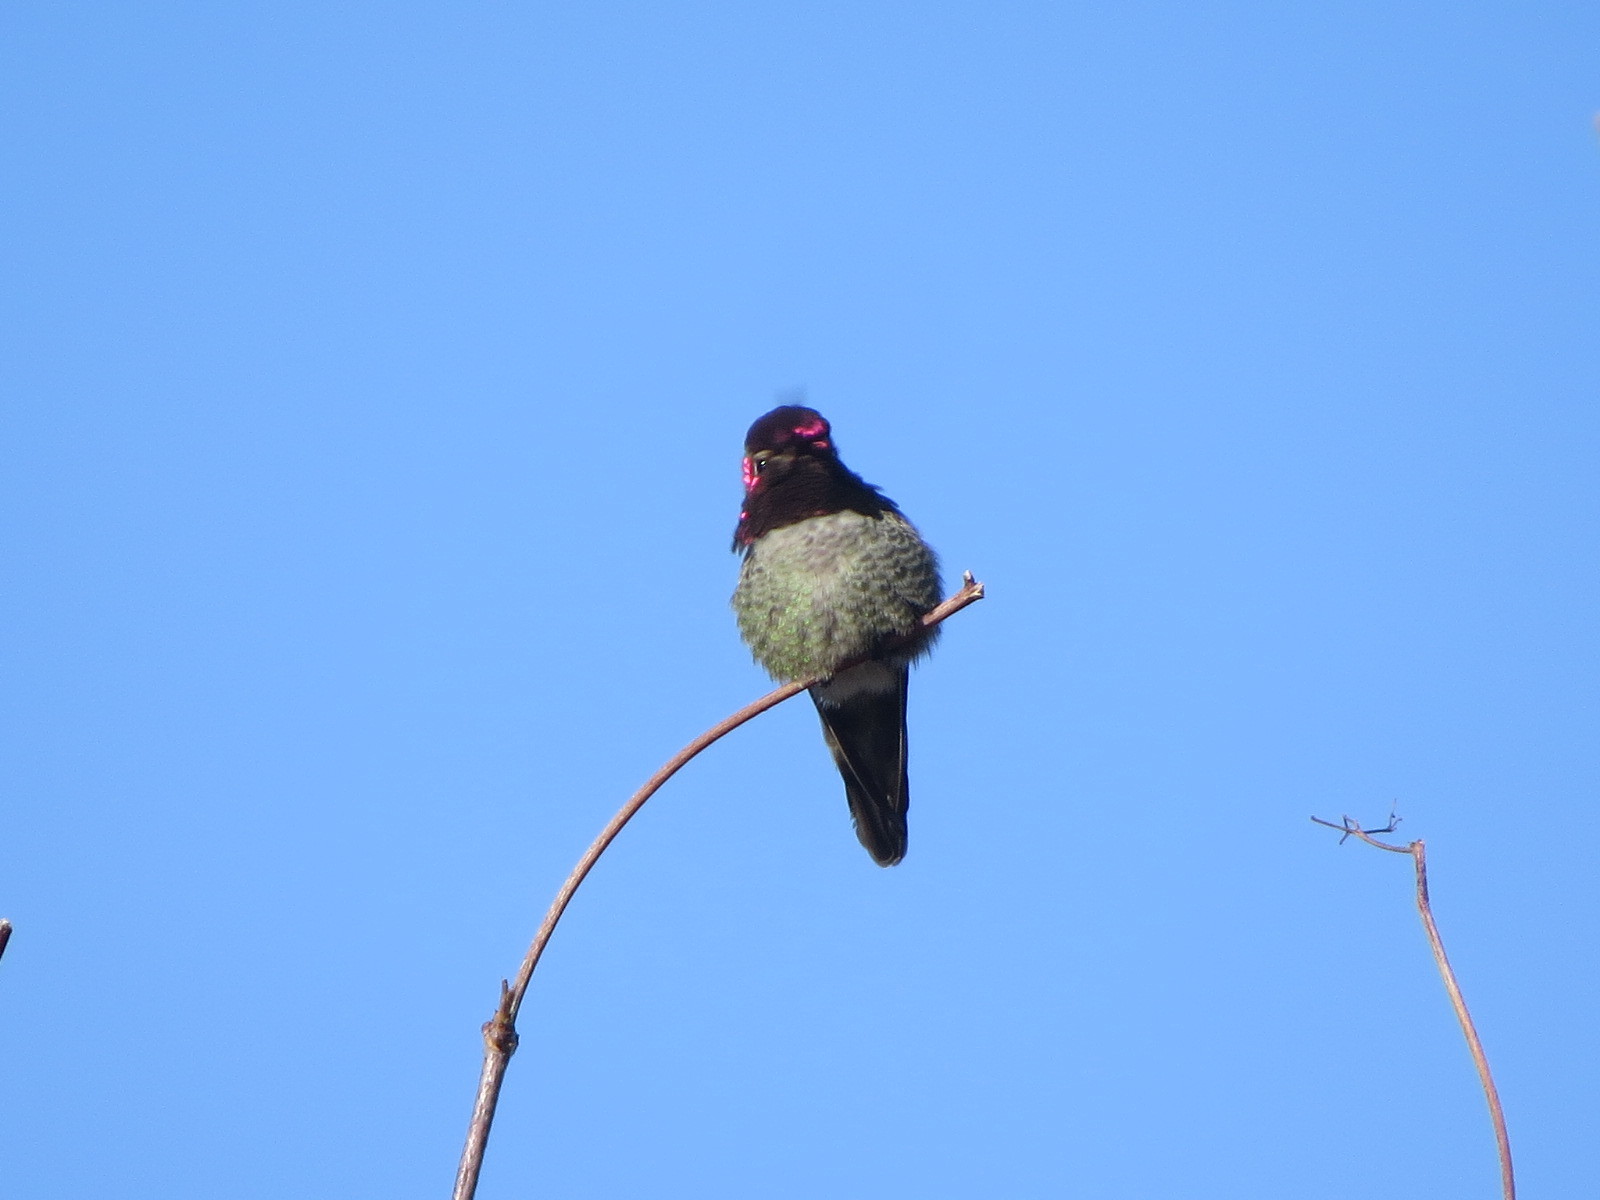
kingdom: Animalia
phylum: Chordata
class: Aves
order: Apodiformes
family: Trochilidae
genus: Calypte
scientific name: Calypte anna
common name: Anna's hummingbird
